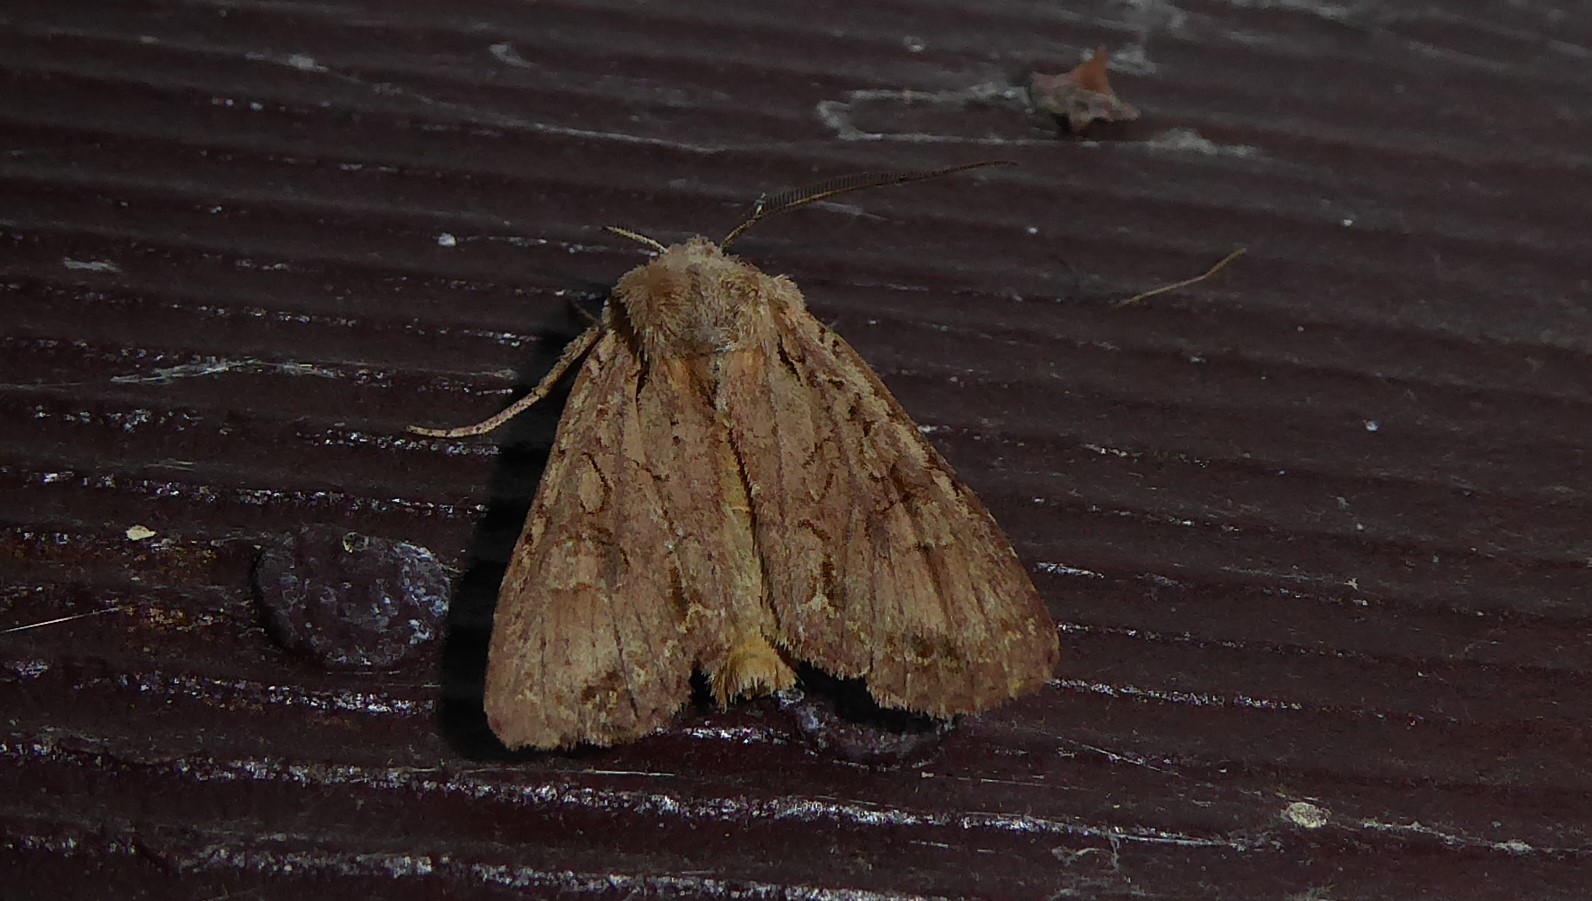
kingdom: Animalia
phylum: Arthropoda
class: Insecta
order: Lepidoptera
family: Noctuidae
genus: Ichneutica
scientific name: Ichneutica
